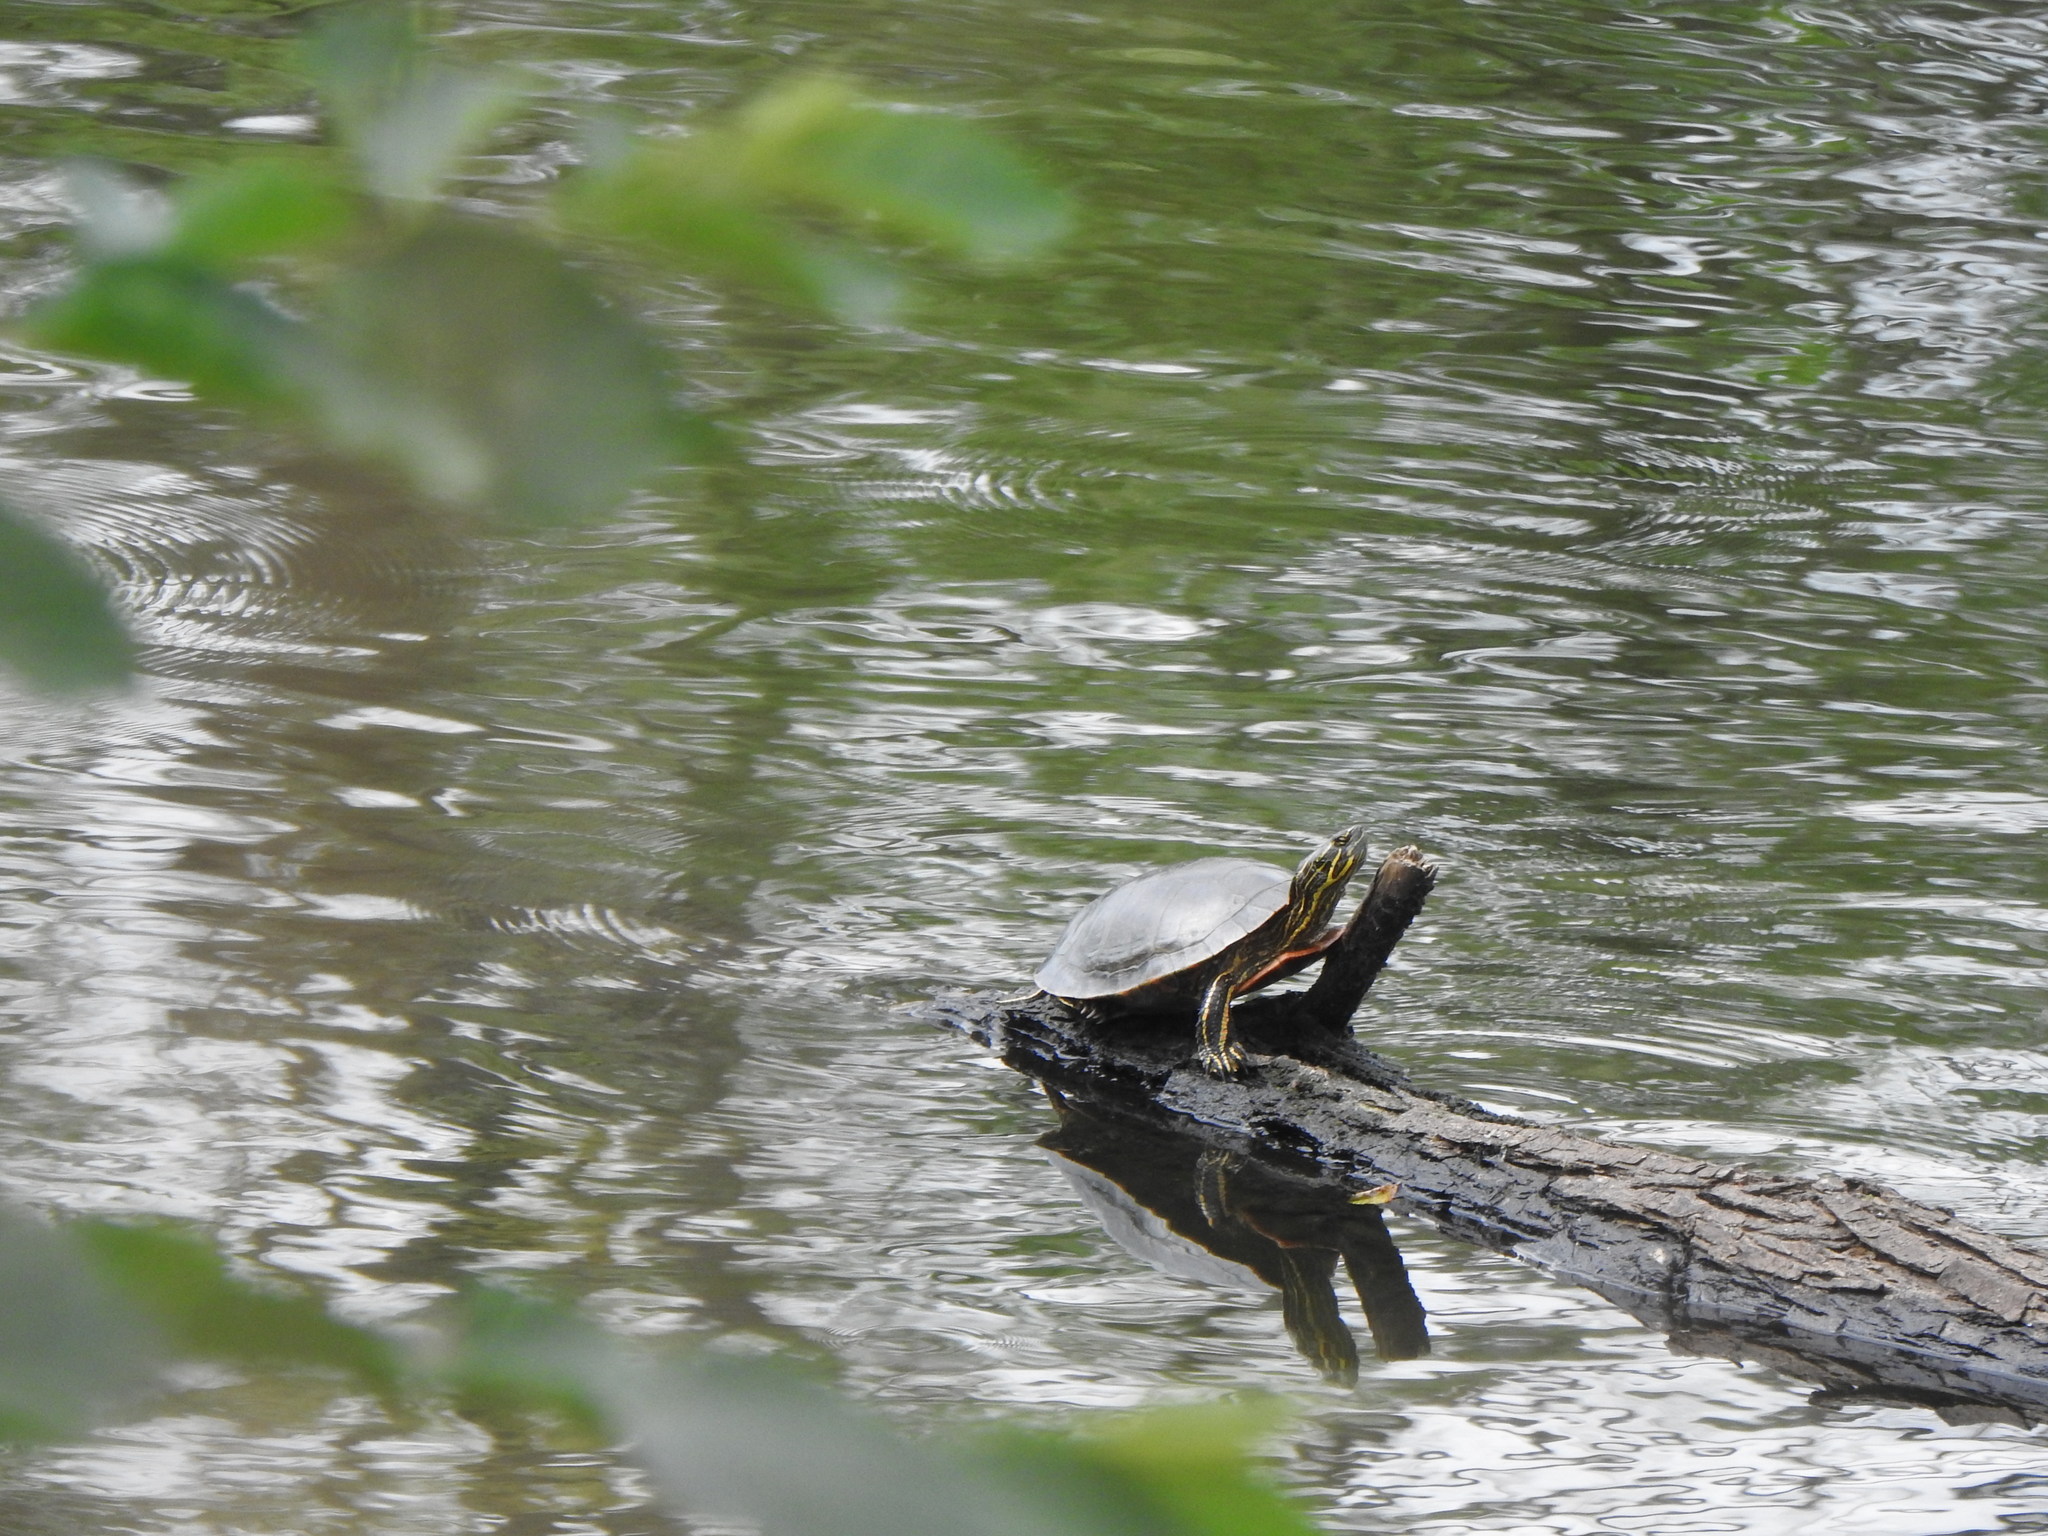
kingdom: Animalia
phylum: Chordata
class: Testudines
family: Emydidae
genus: Chrysemys
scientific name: Chrysemys picta
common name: Painted turtle
